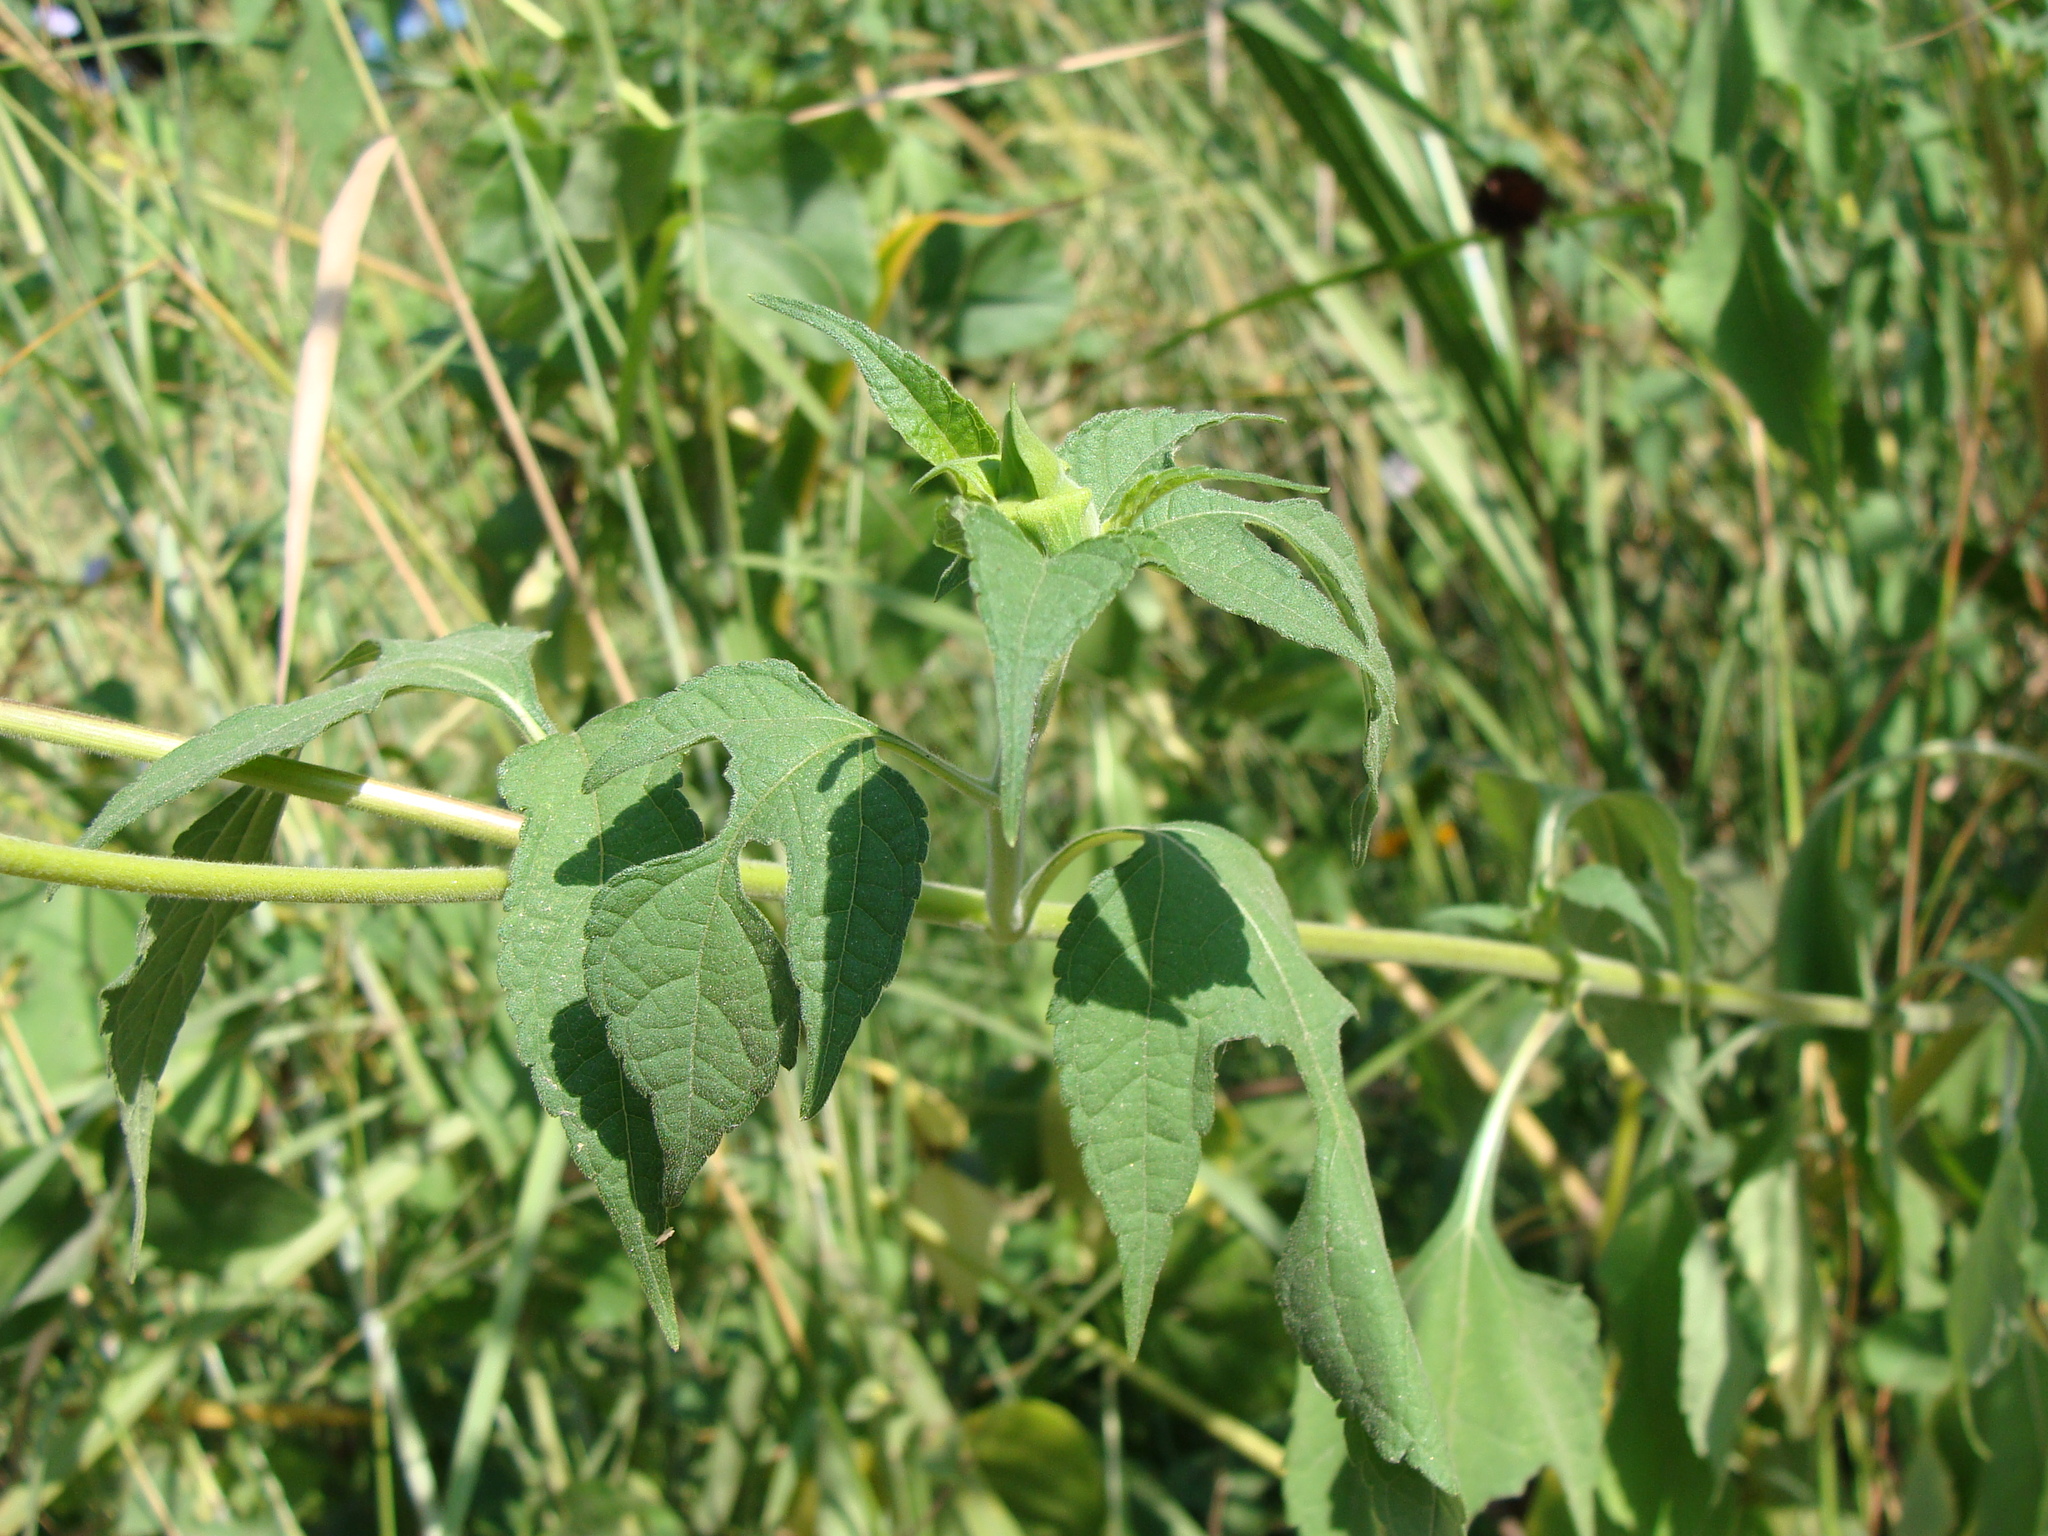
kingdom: Plantae
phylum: Tracheophyta
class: Magnoliopsida
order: Asterales
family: Asteraceae
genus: Tithonia
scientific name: Tithonia rotundifolia
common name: Sunflower
